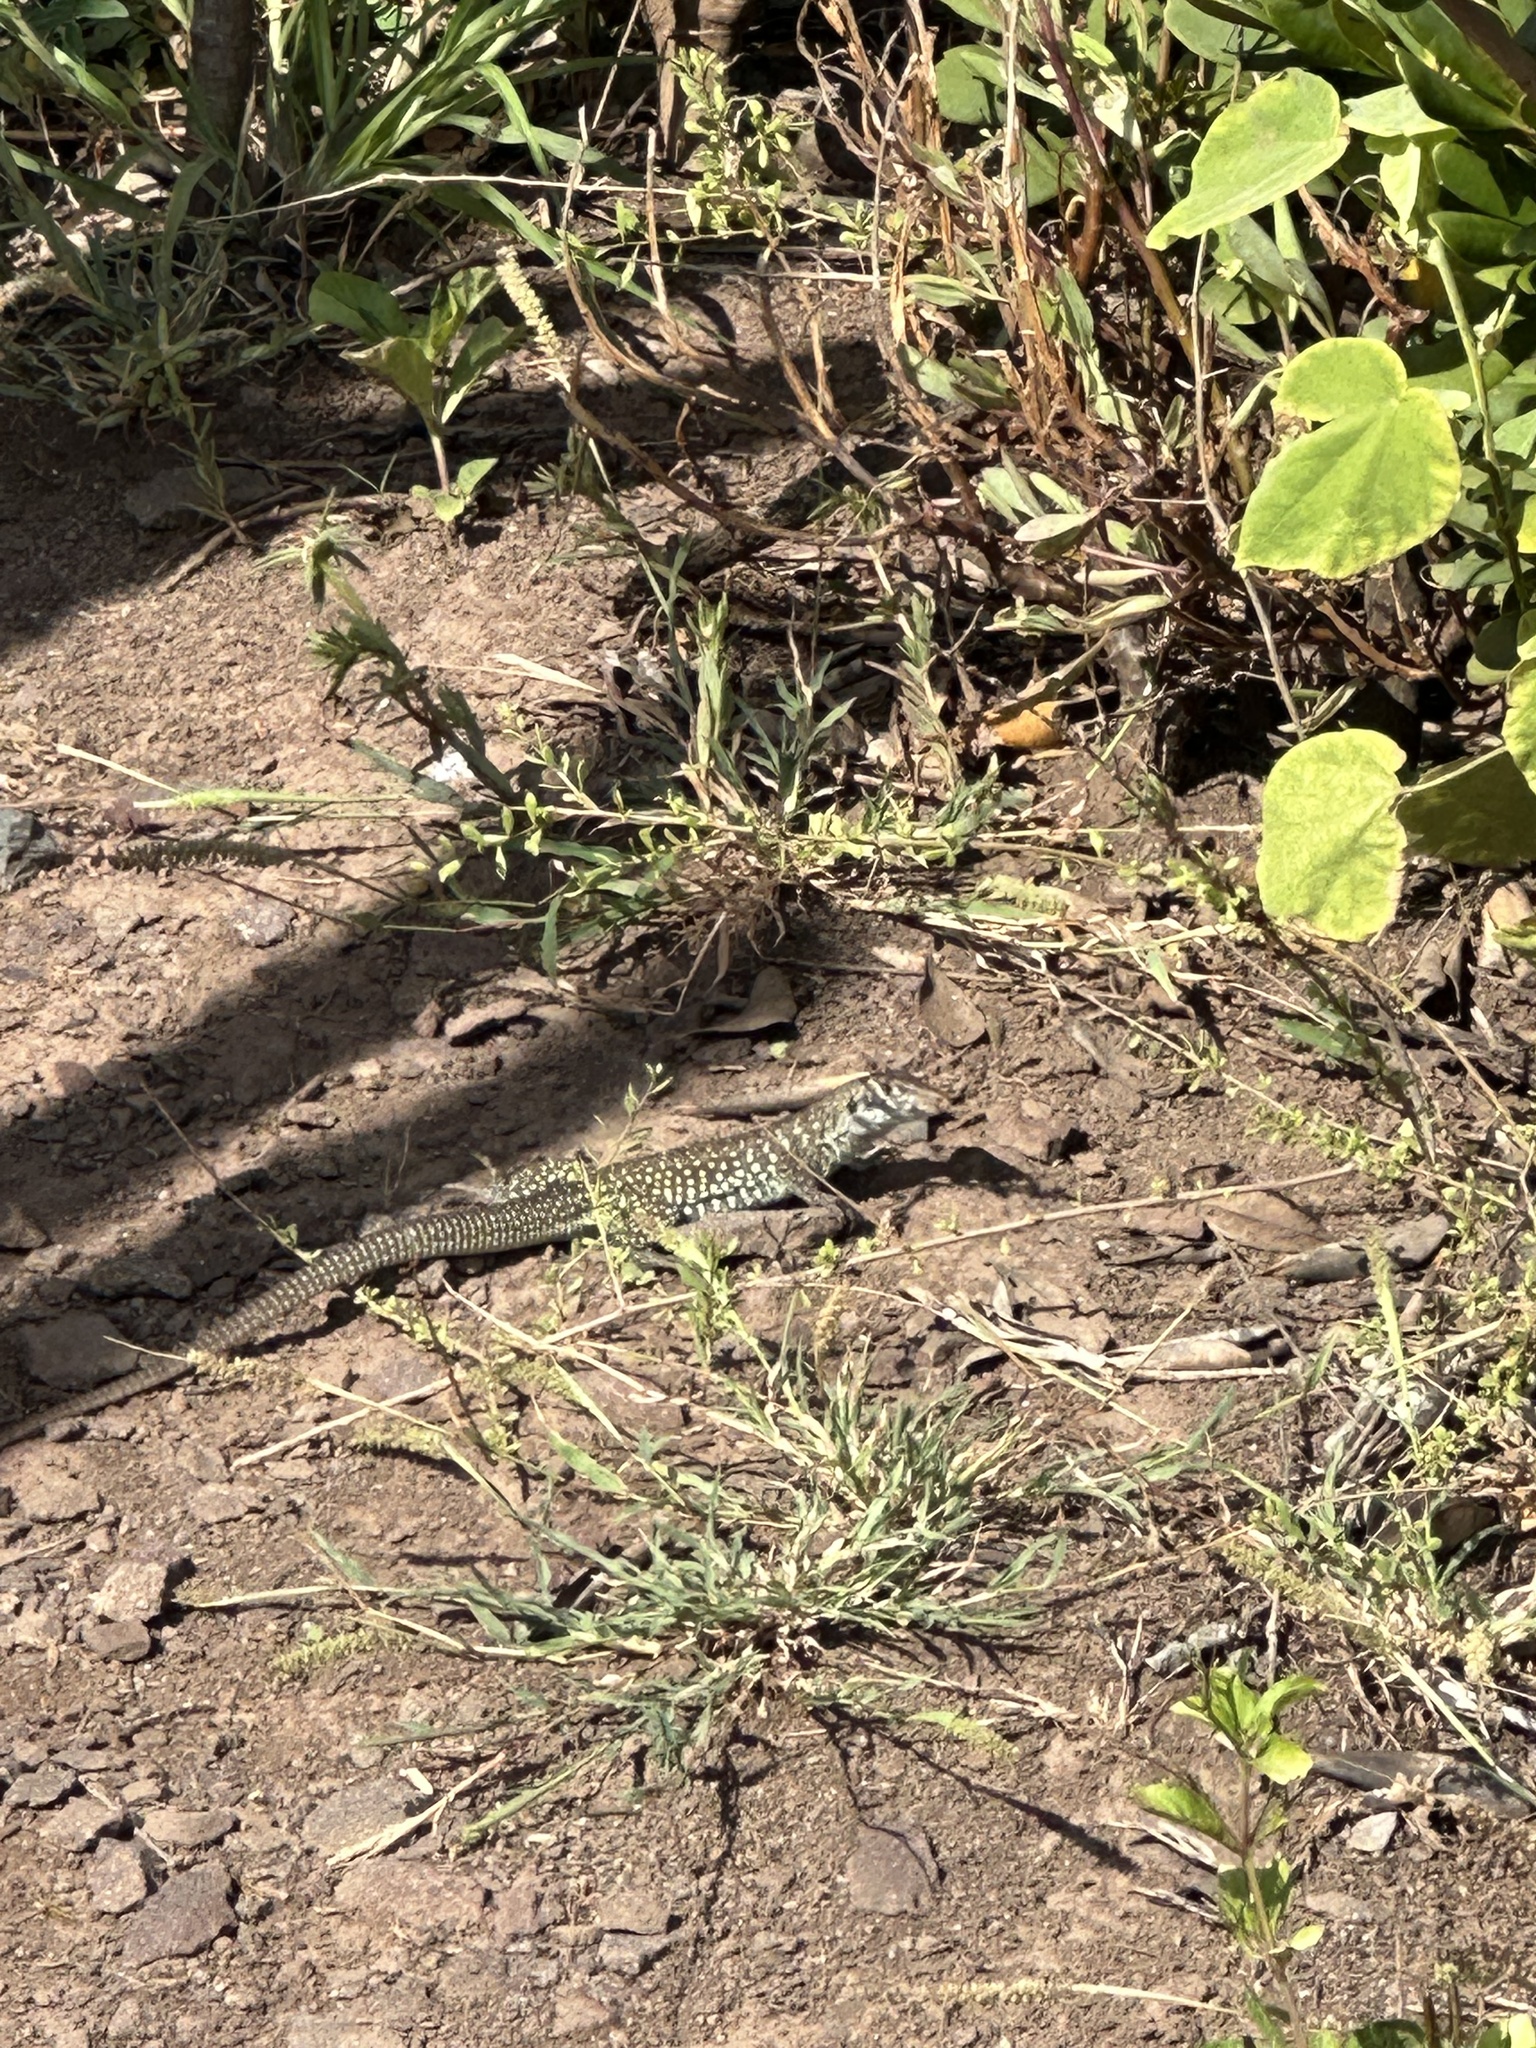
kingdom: Animalia
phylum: Chordata
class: Squamata
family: Teiidae
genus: Pholidoscelis
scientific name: Pholidoscelis plei
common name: Anguilla bank ameiva
